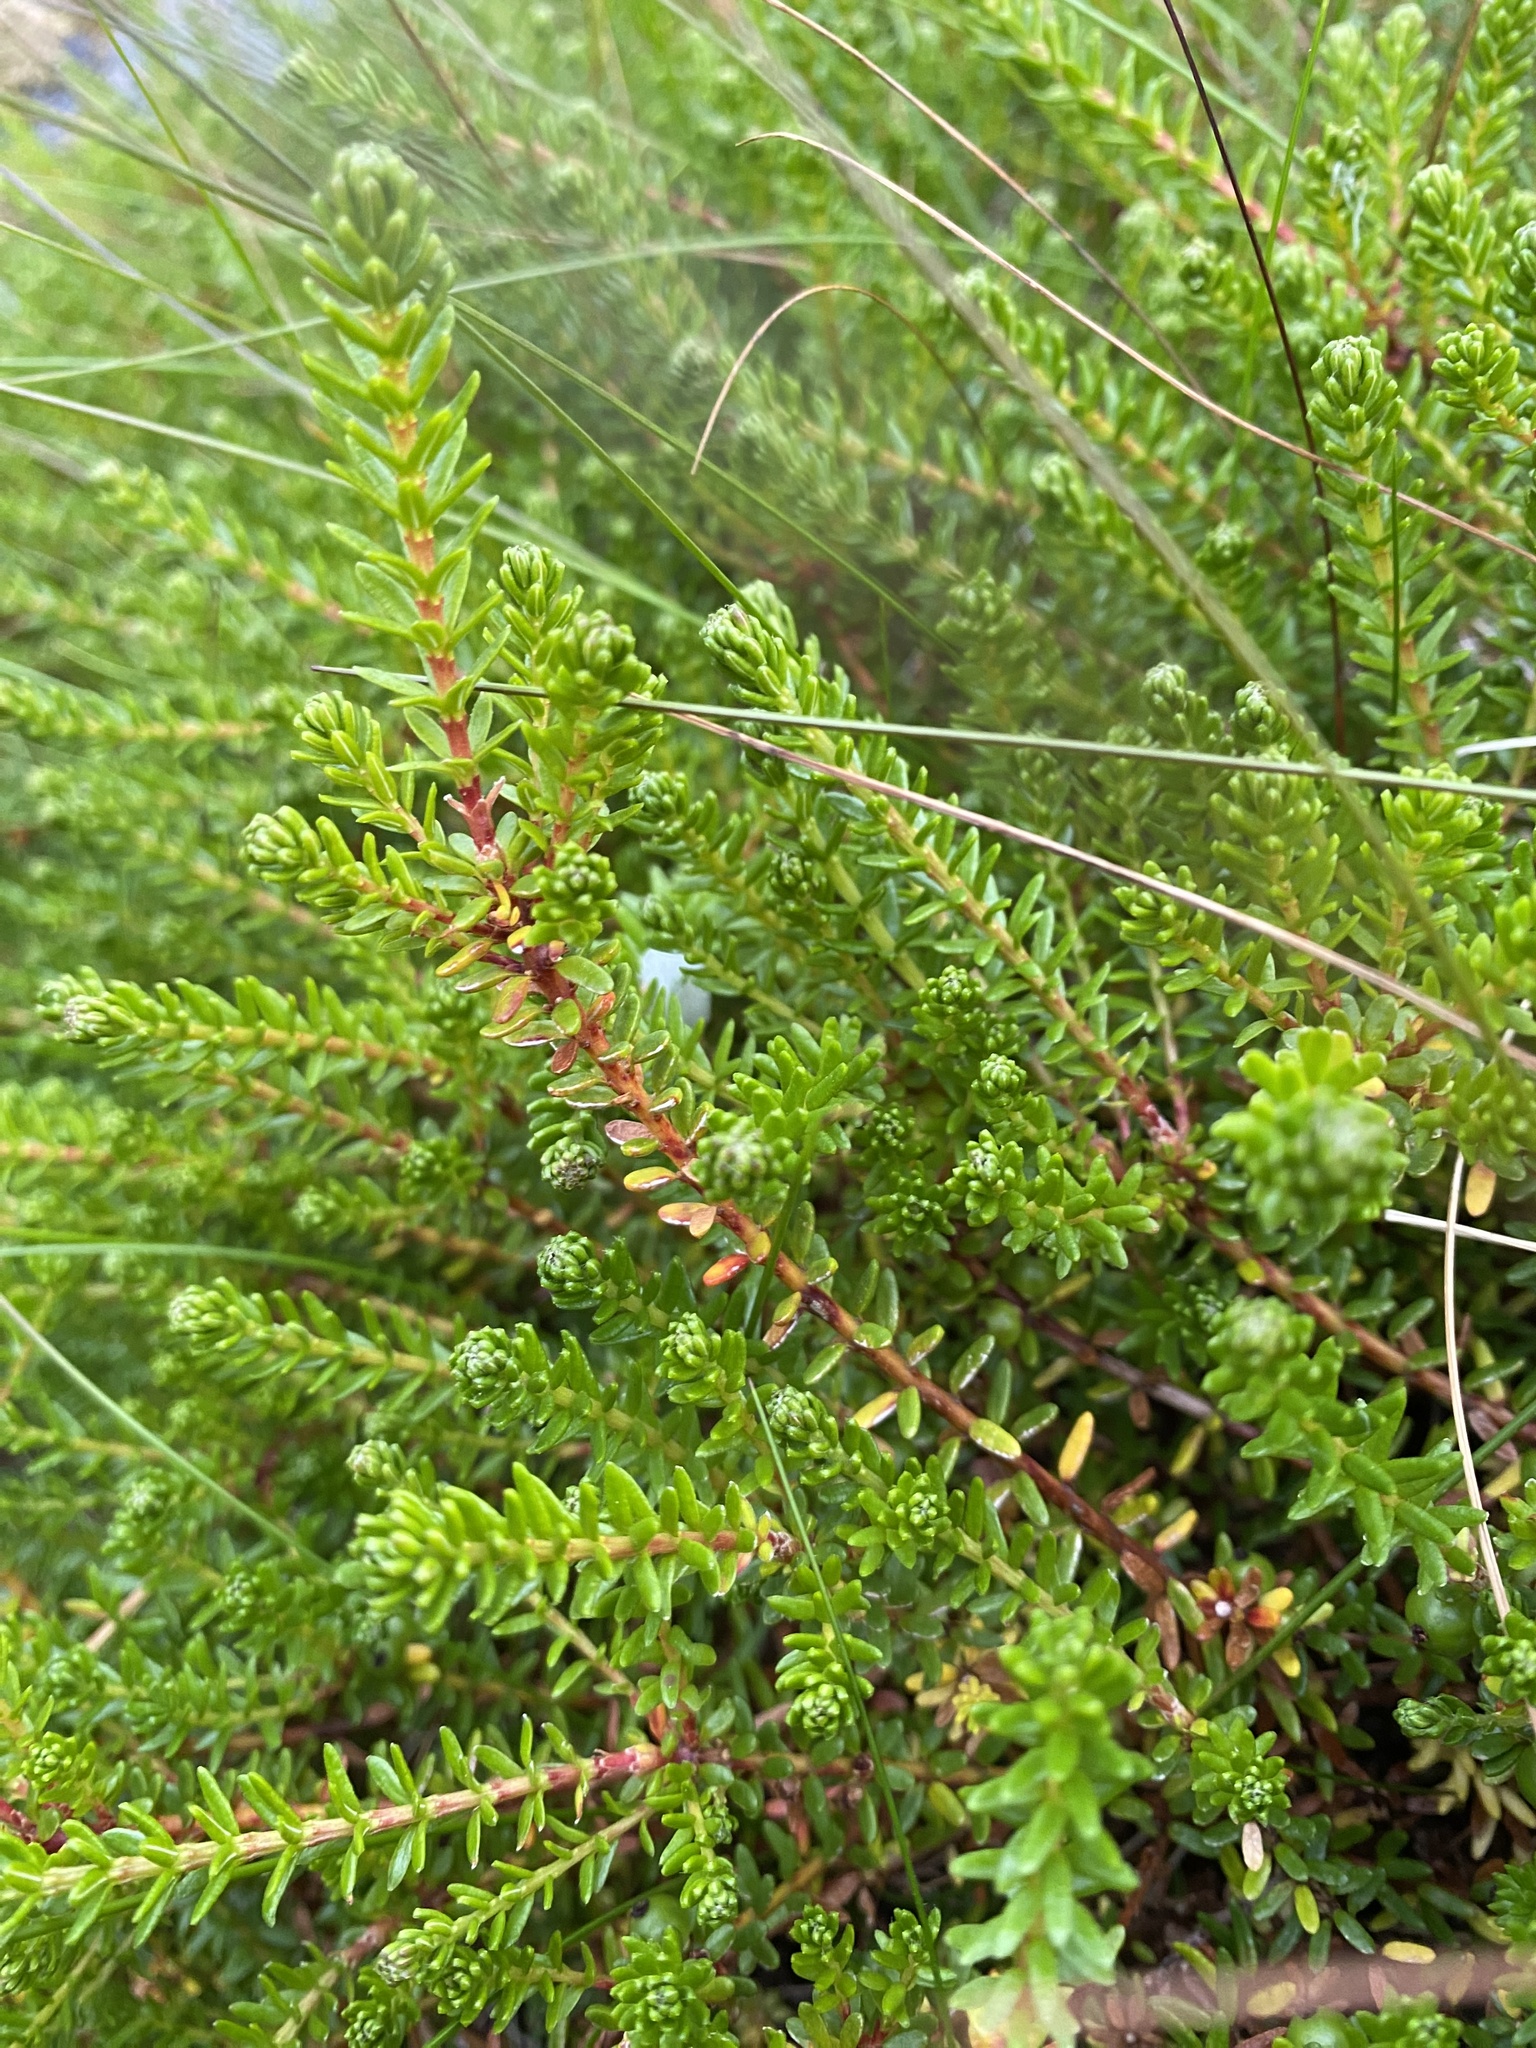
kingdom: Plantae
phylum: Tracheophyta
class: Magnoliopsida
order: Ericales
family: Ericaceae
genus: Empetrum
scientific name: Empetrum nigrum
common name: Black crowberry
